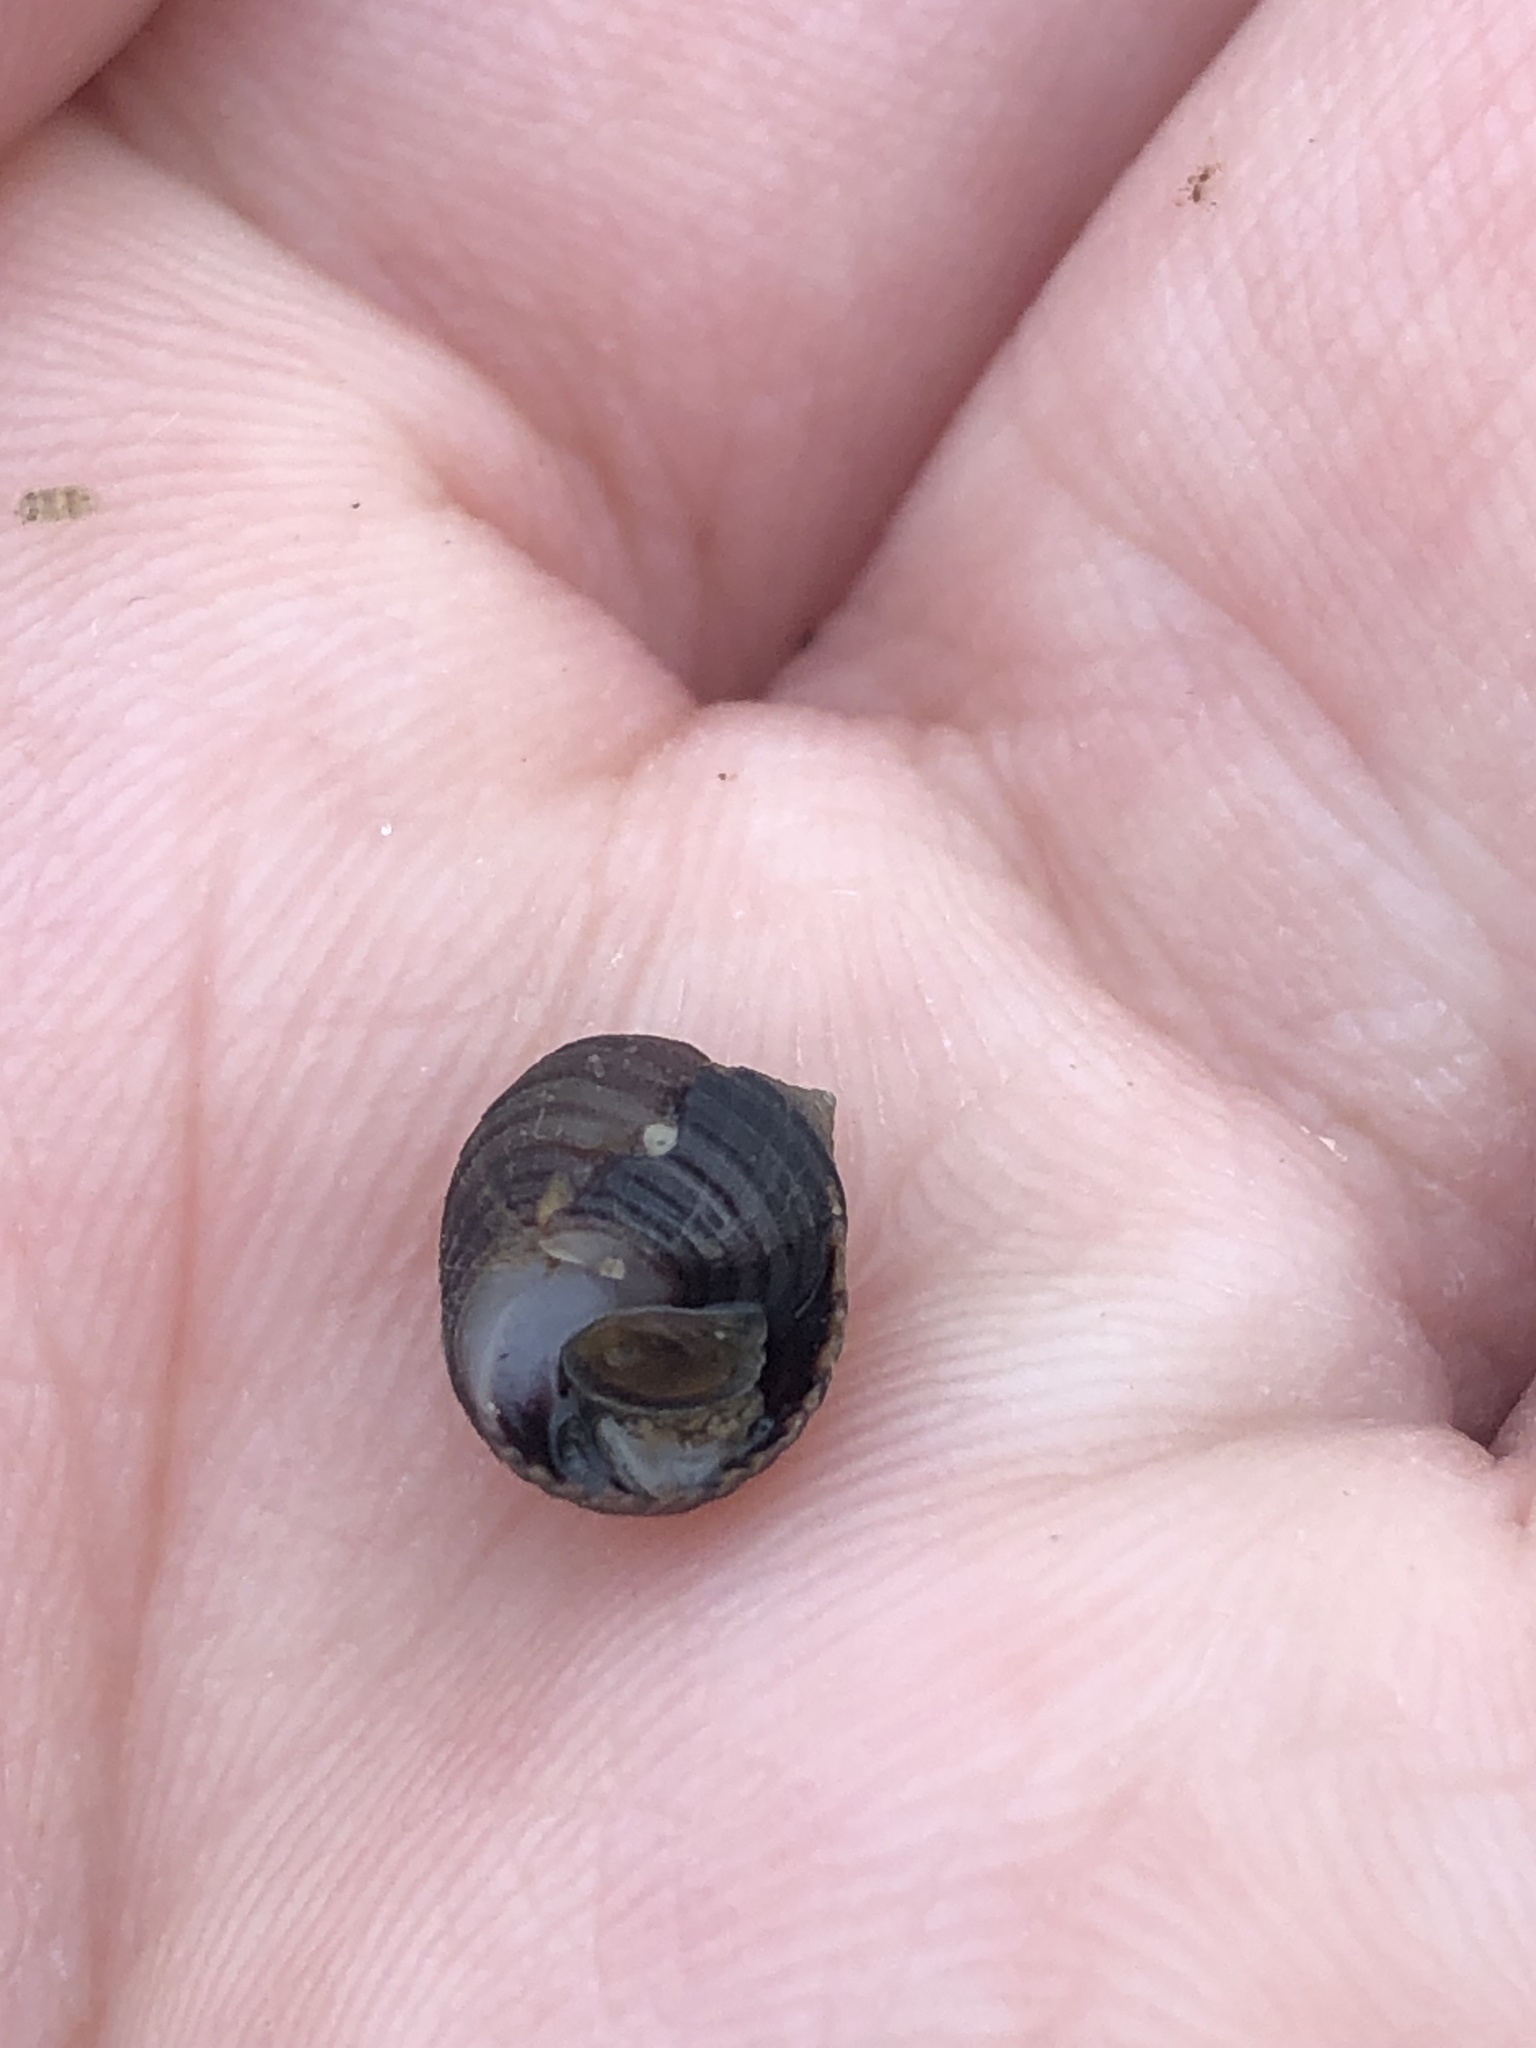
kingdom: Animalia
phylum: Mollusca
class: Gastropoda
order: Littorinimorpha
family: Littorinidae
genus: Littorina
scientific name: Littorina littorea
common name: Common periwinkle
